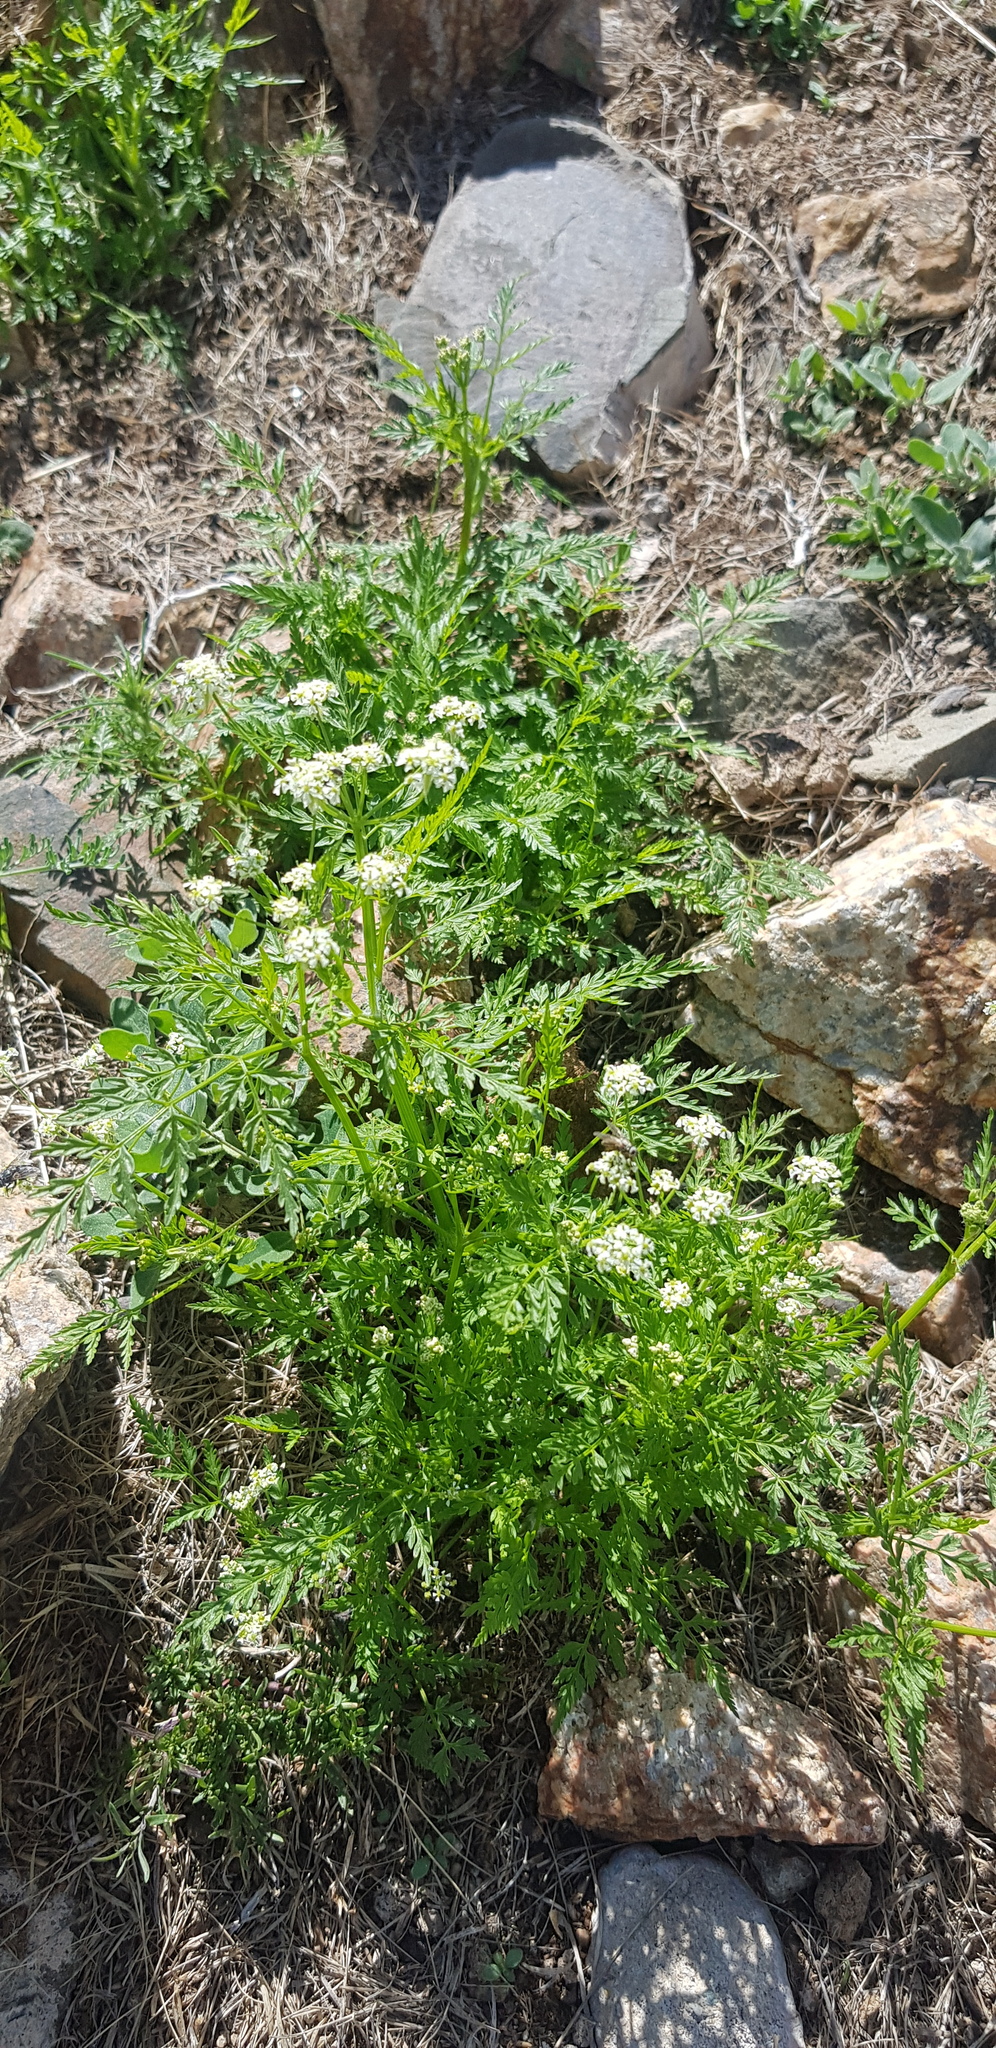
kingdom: Plantae
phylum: Tracheophyta
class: Magnoliopsida
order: Apiales
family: Apiaceae
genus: Sphallerocarpus
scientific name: Sphallerocarpus gracilis
